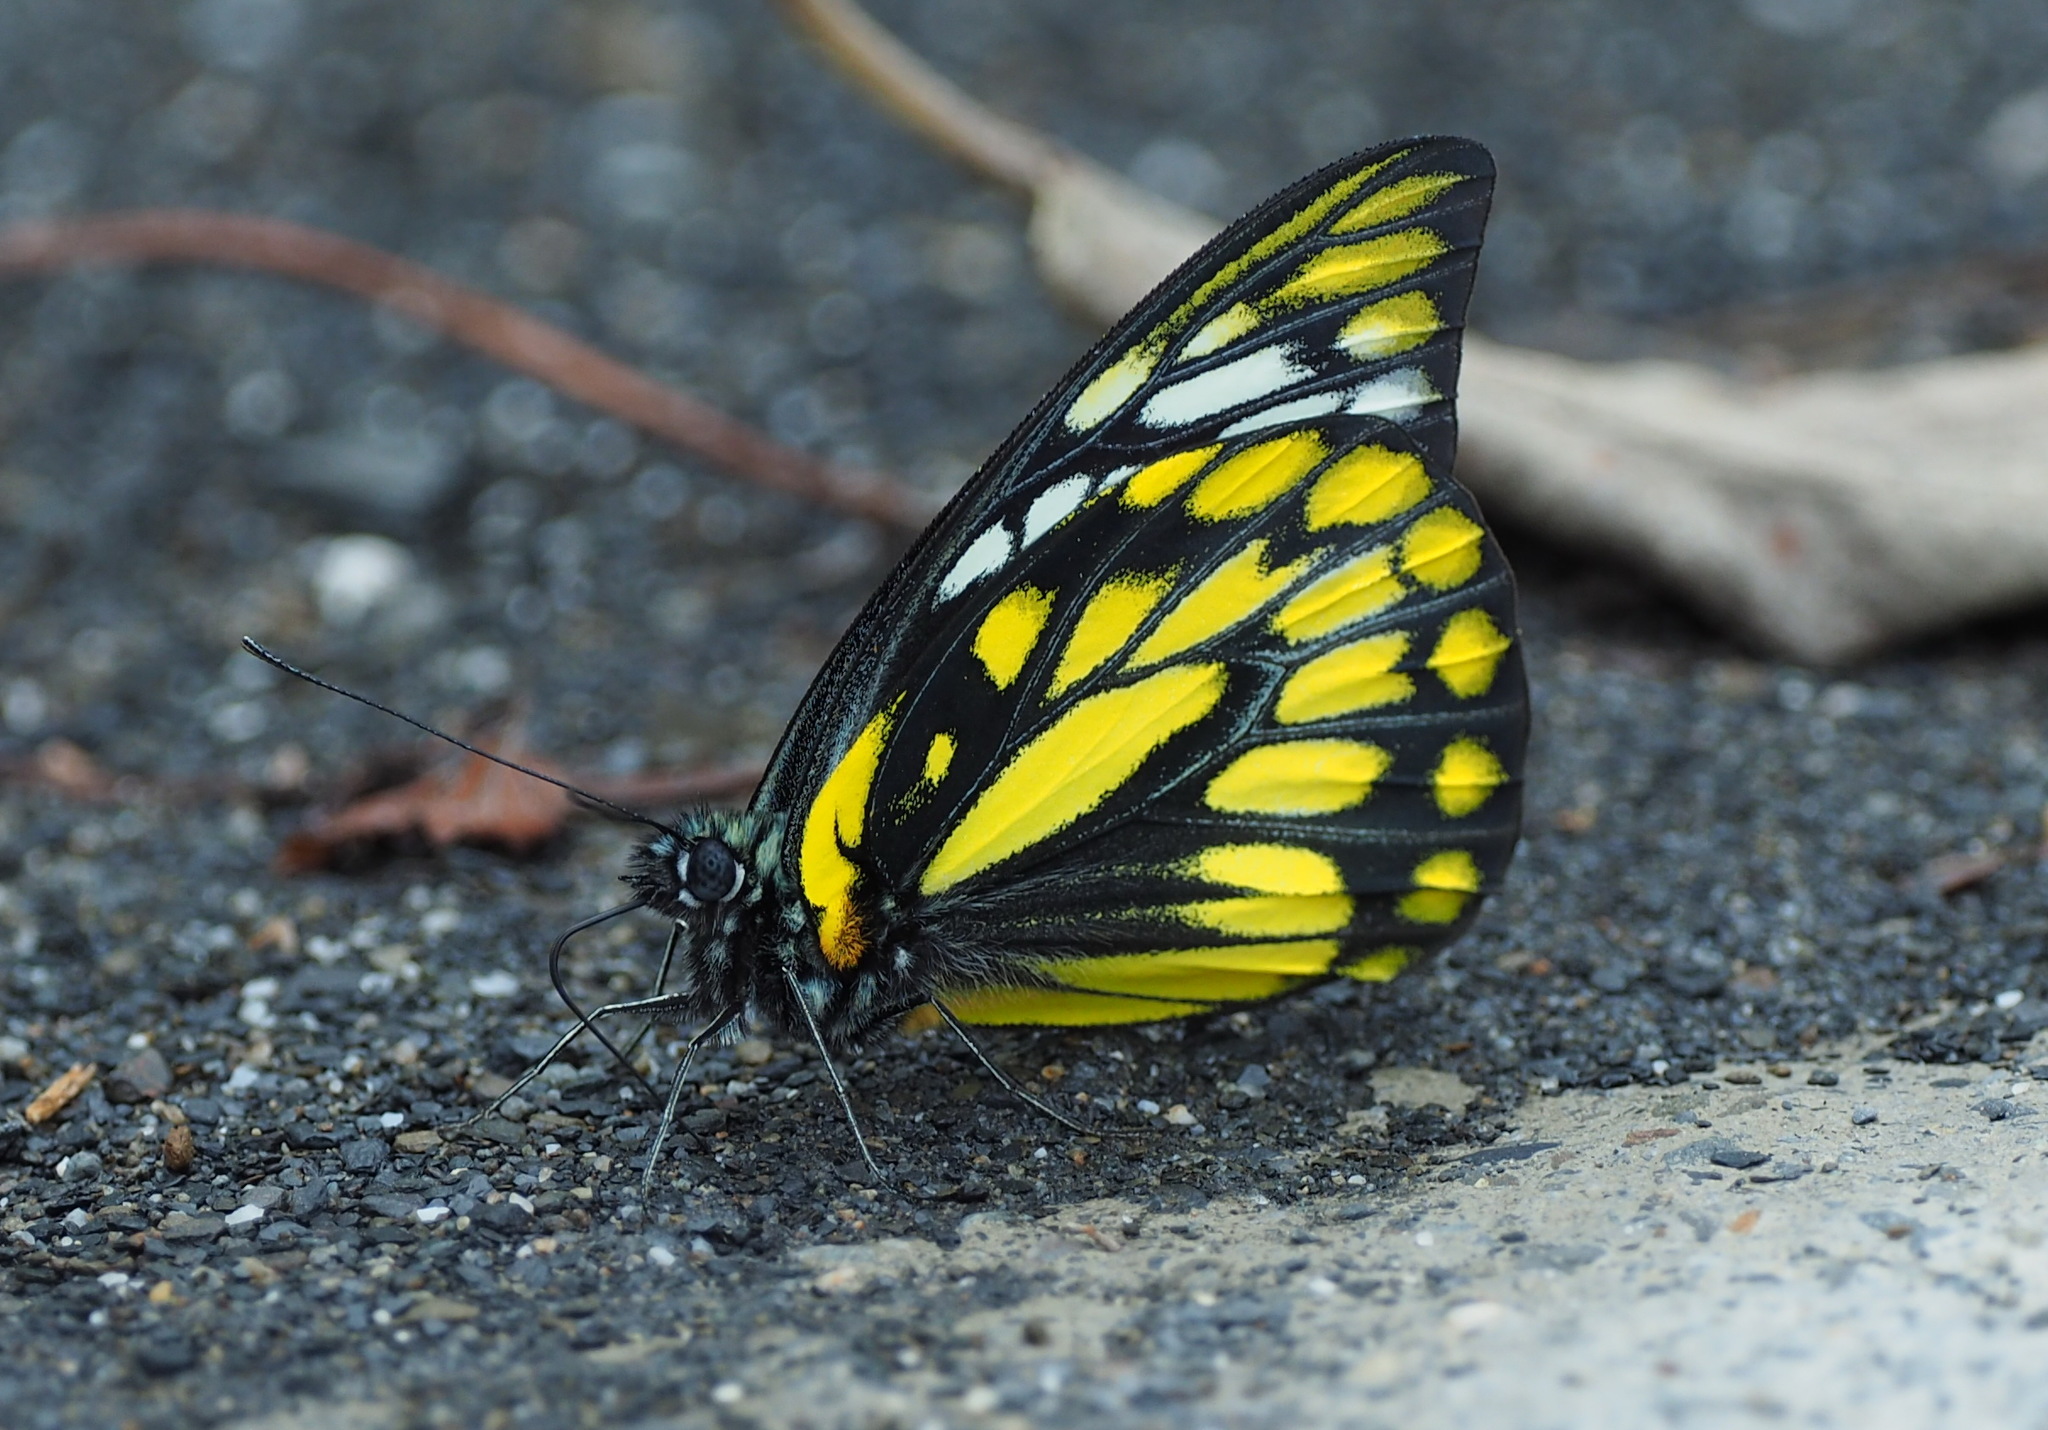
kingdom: Animalia
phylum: Arthropoda
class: Insecta
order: Lepidoptera
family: Pieridae
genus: Prioneris
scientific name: Prioneris thestylis
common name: Spotted sawtooth
